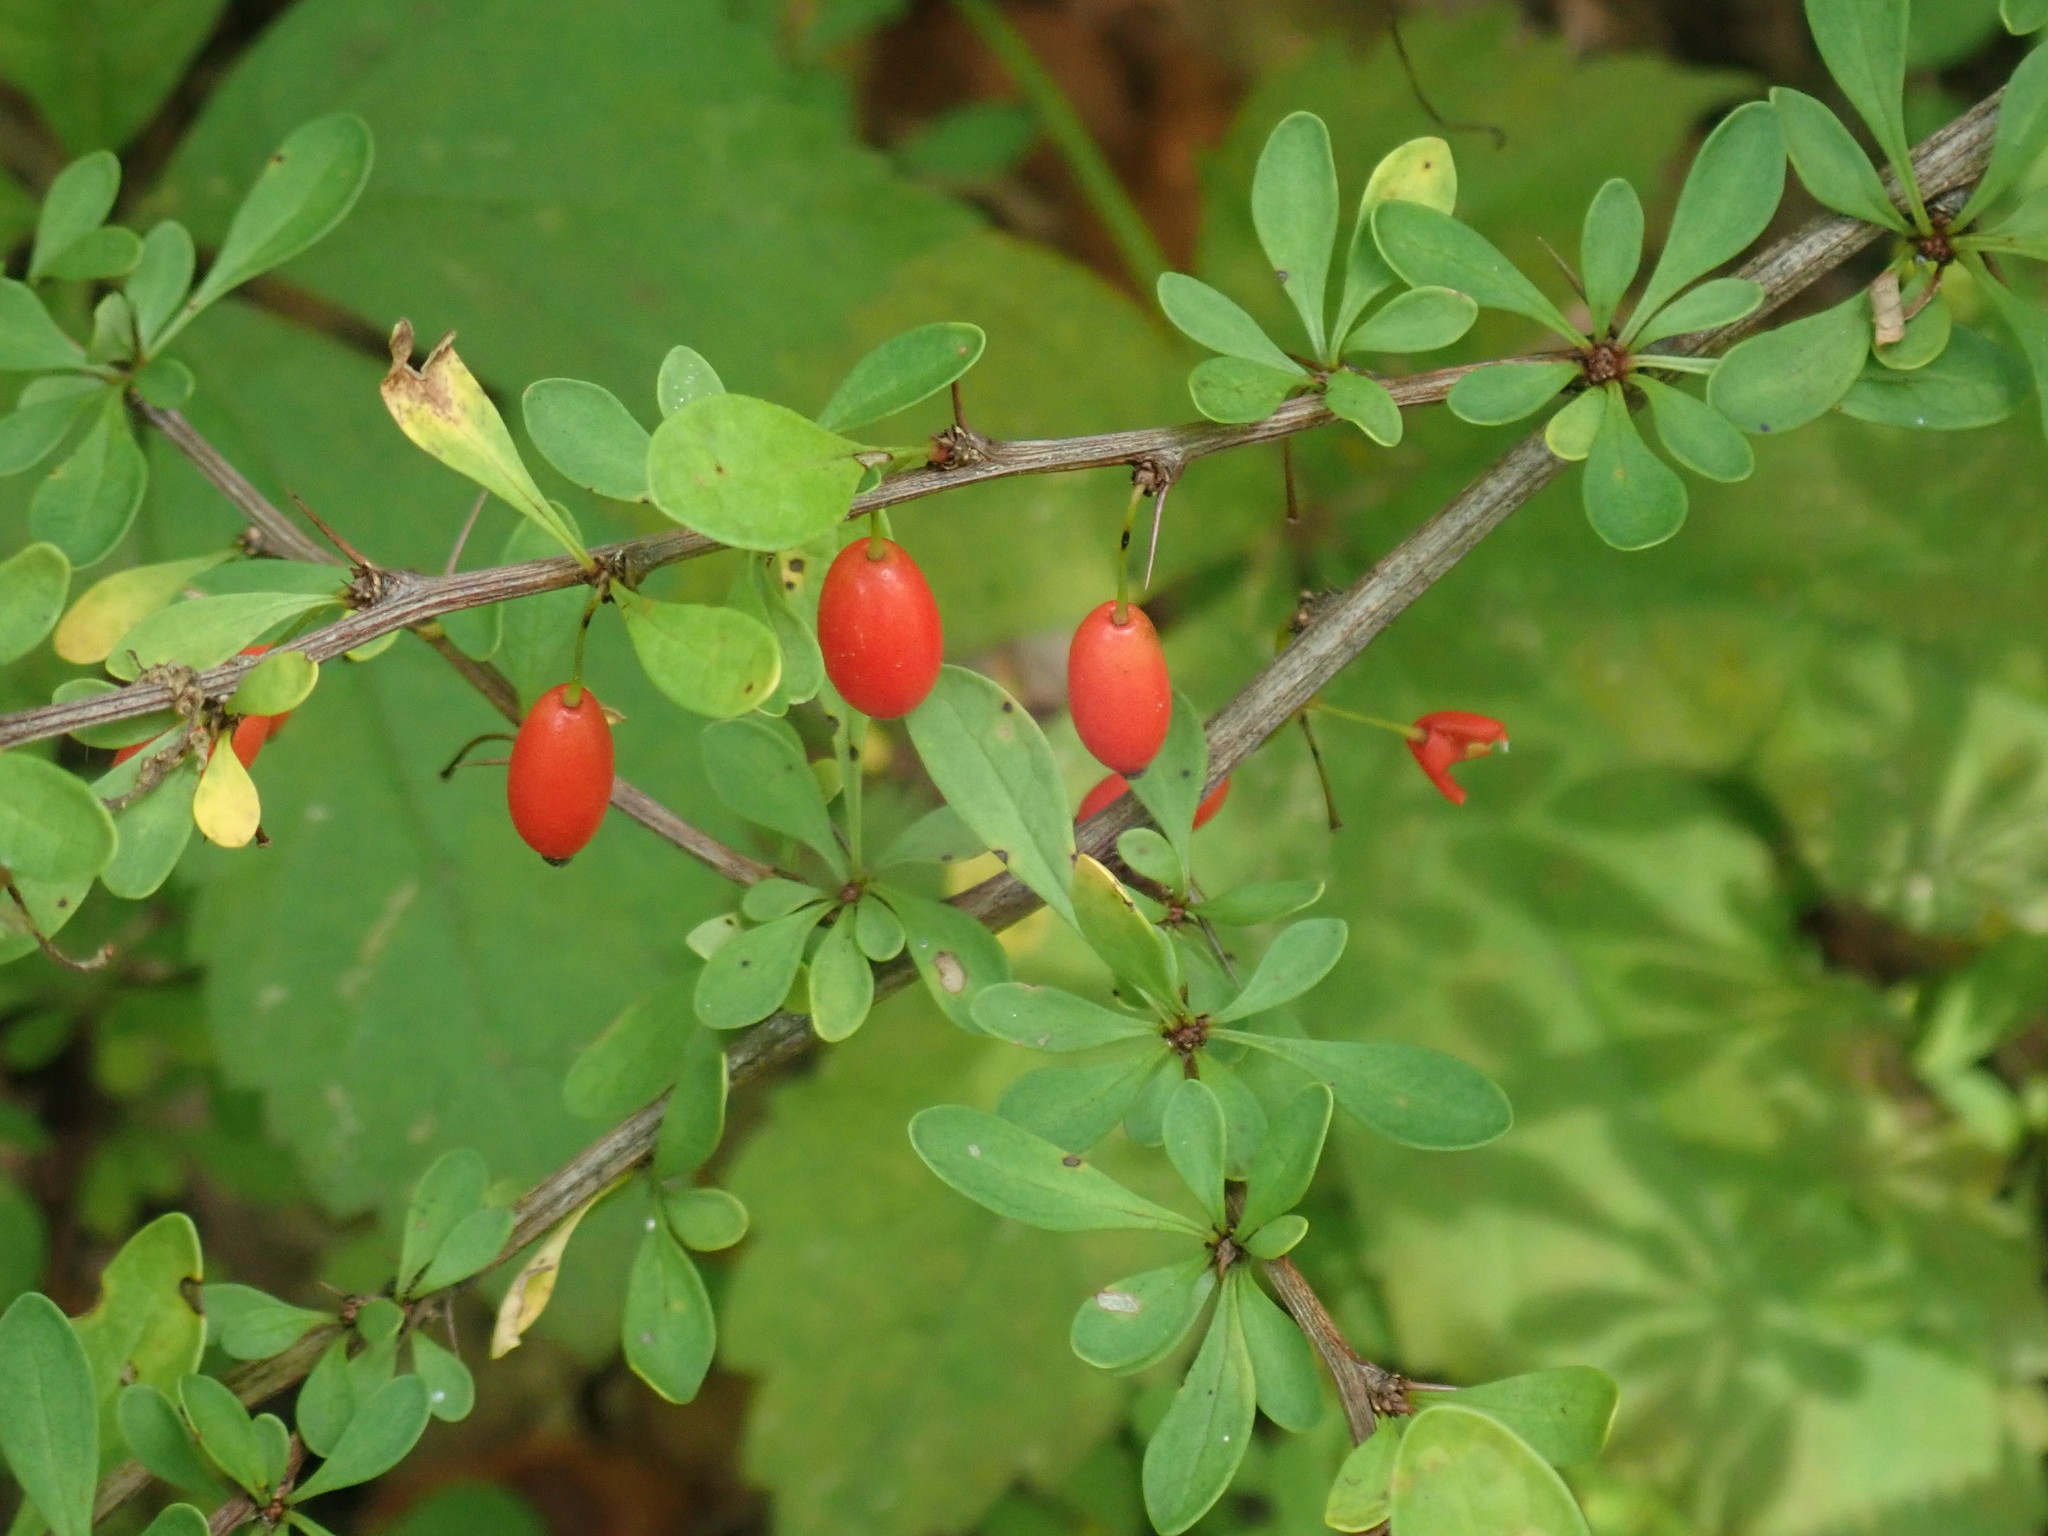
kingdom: Plantae
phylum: Tracheophyta
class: Magnoliopsida
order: Ranunculales
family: Berberidaceae
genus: Berberis
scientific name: Berberis thunbergii
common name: Japanese barberry
